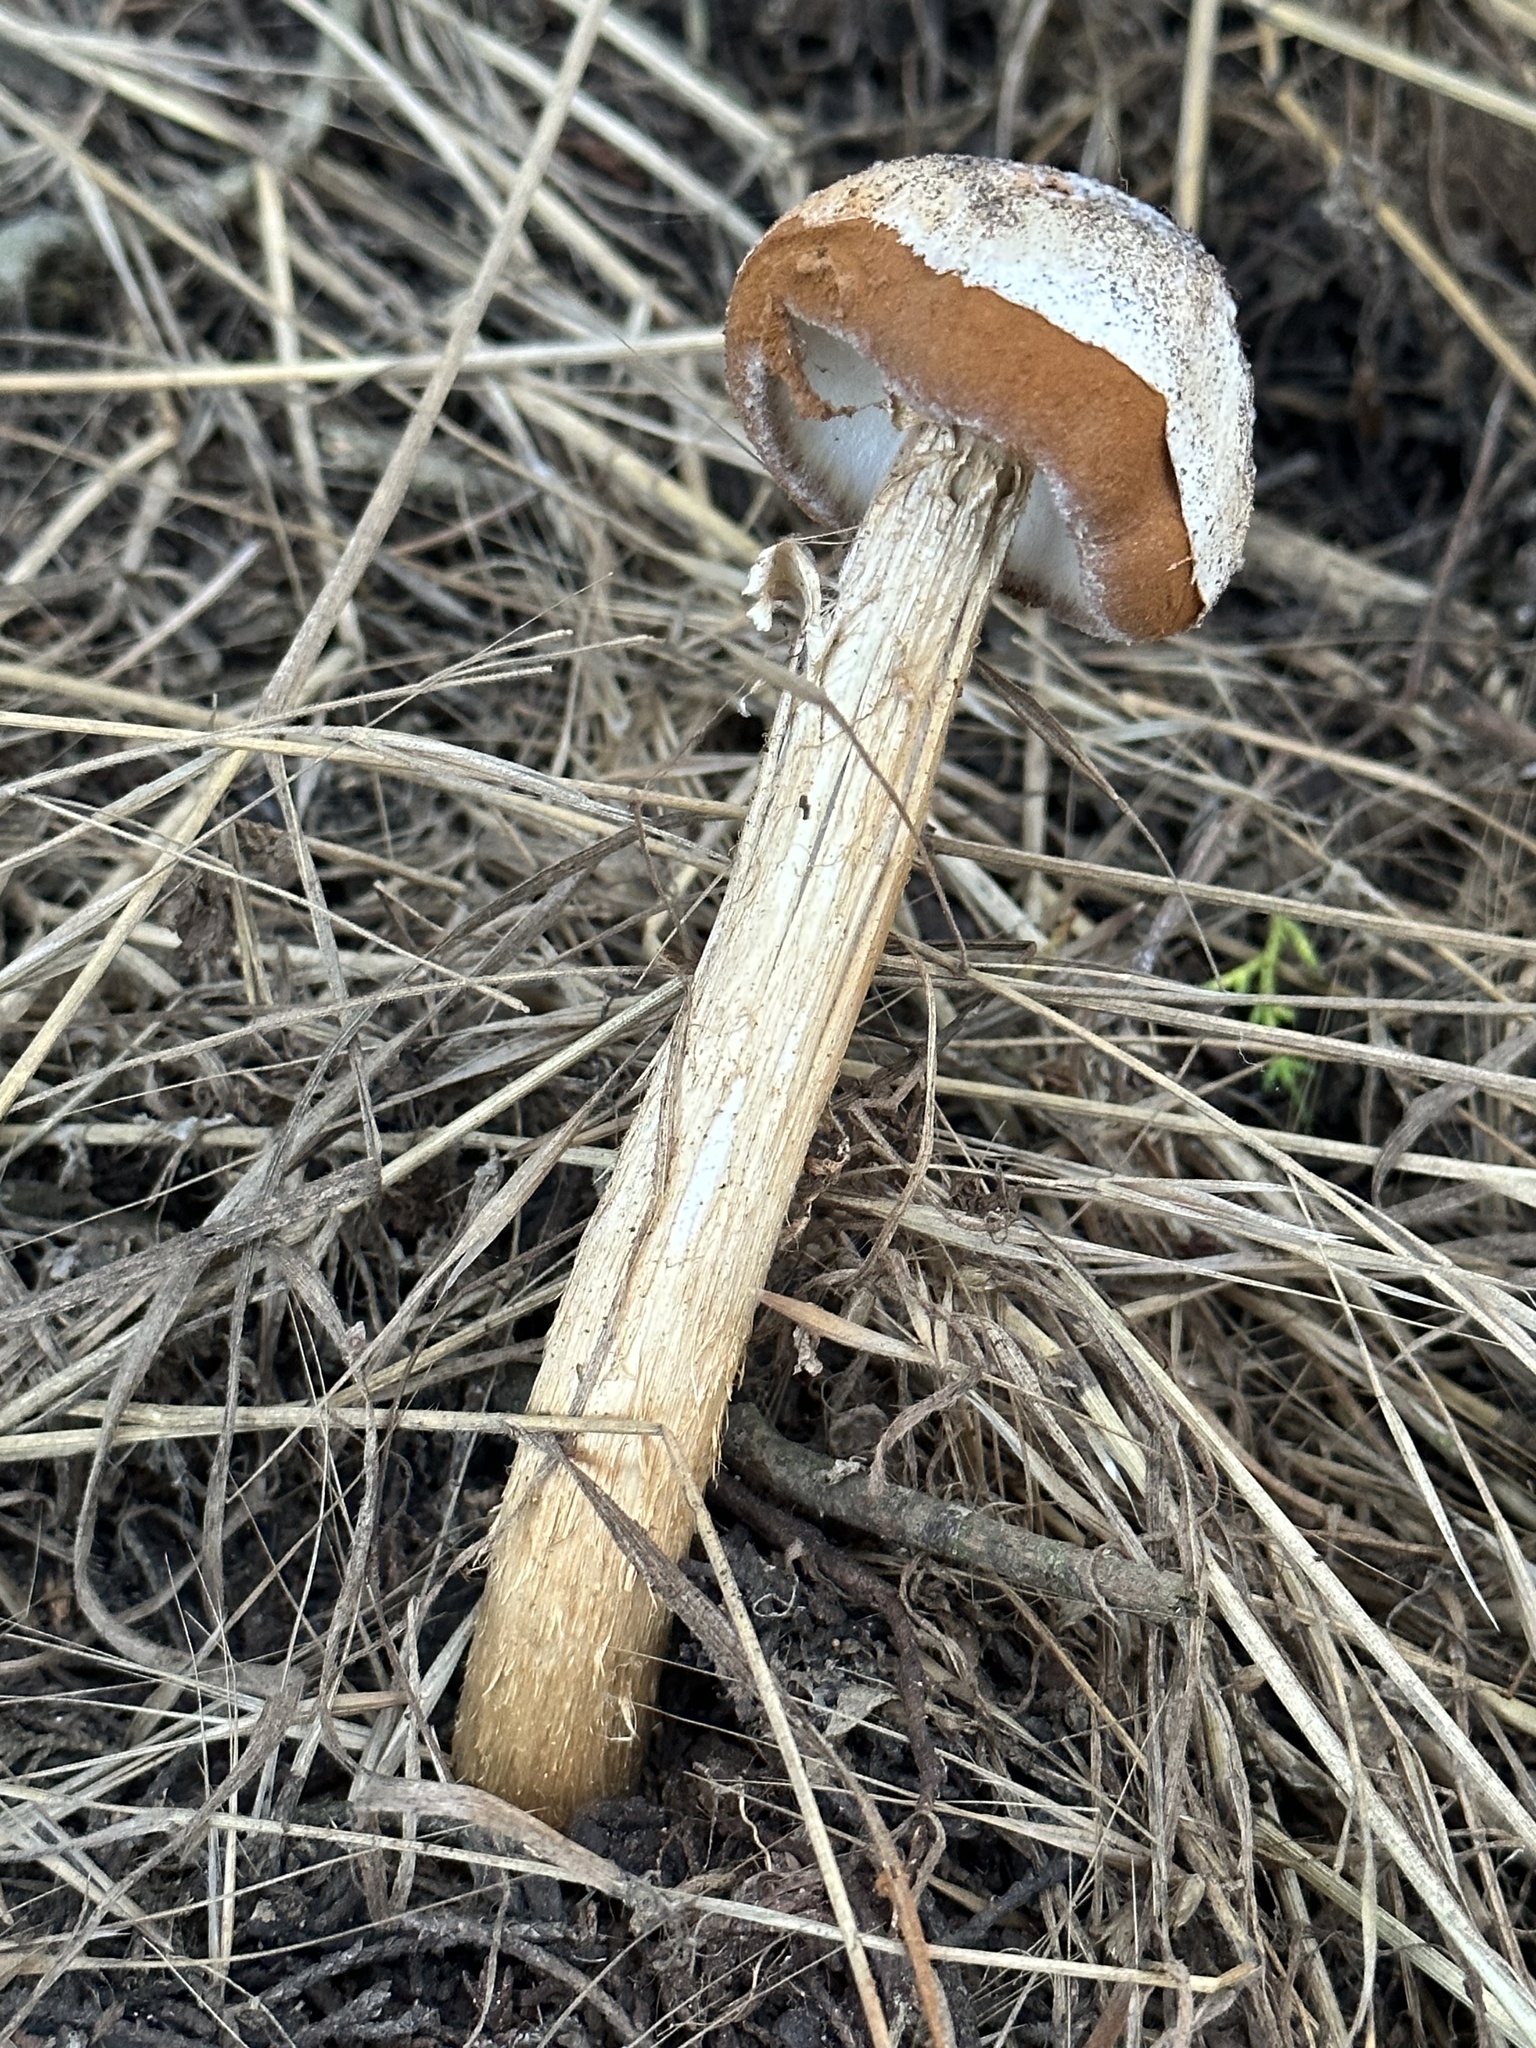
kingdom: Fungi
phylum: Basidiomycota
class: Agaricomycetes
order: Agaricales
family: Agaricaceae
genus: Battarrea
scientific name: Battarrea phalloides
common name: Sandy stiltball
